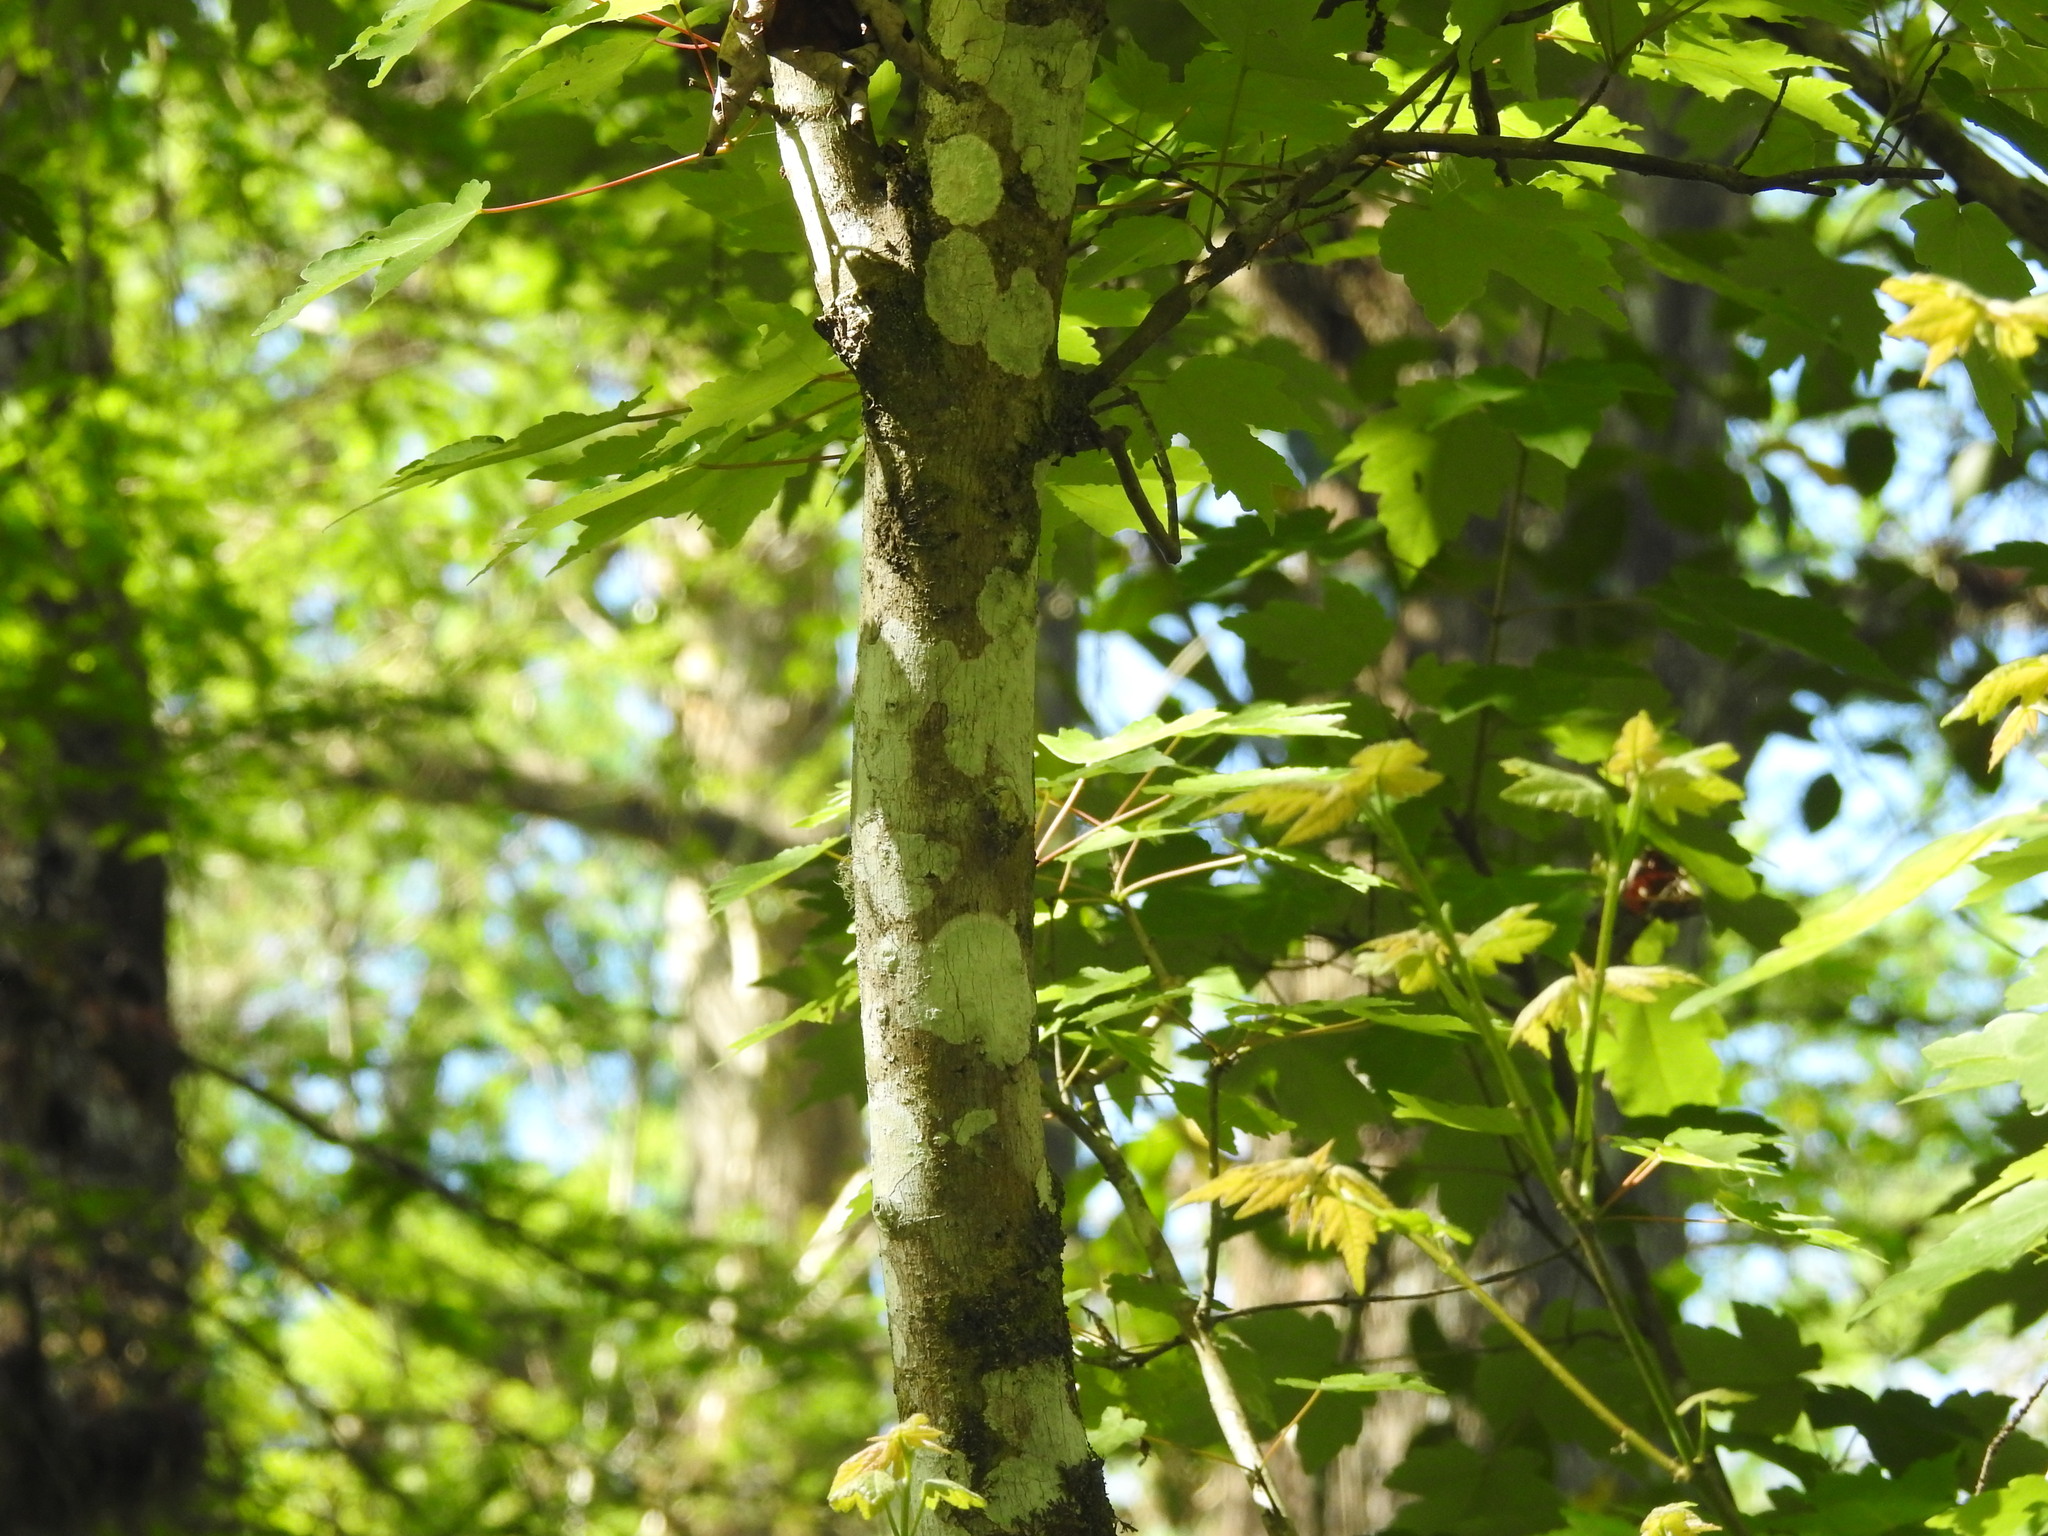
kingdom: Plantae
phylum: Tracheophyta
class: Magnoliopsida
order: Sapindales
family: Sapindaceae
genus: Acer
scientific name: Acer rubrum
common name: Red maple
